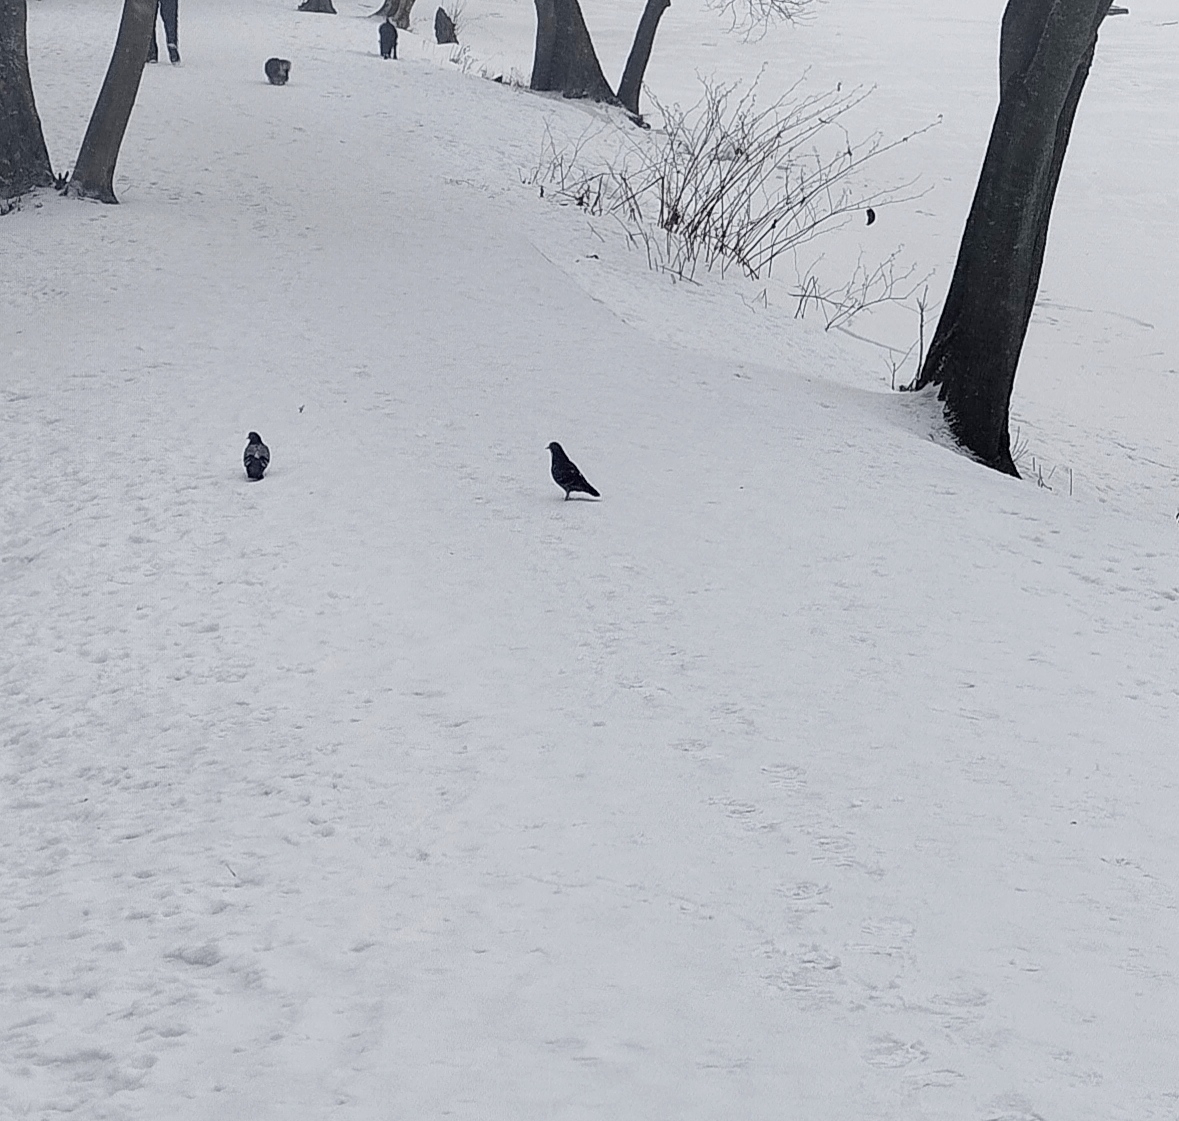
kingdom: Animalia
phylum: Chordata
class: Aves
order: Columbiformes
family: Columbidae
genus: Columba
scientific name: Columba livia
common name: Rock pigeon
